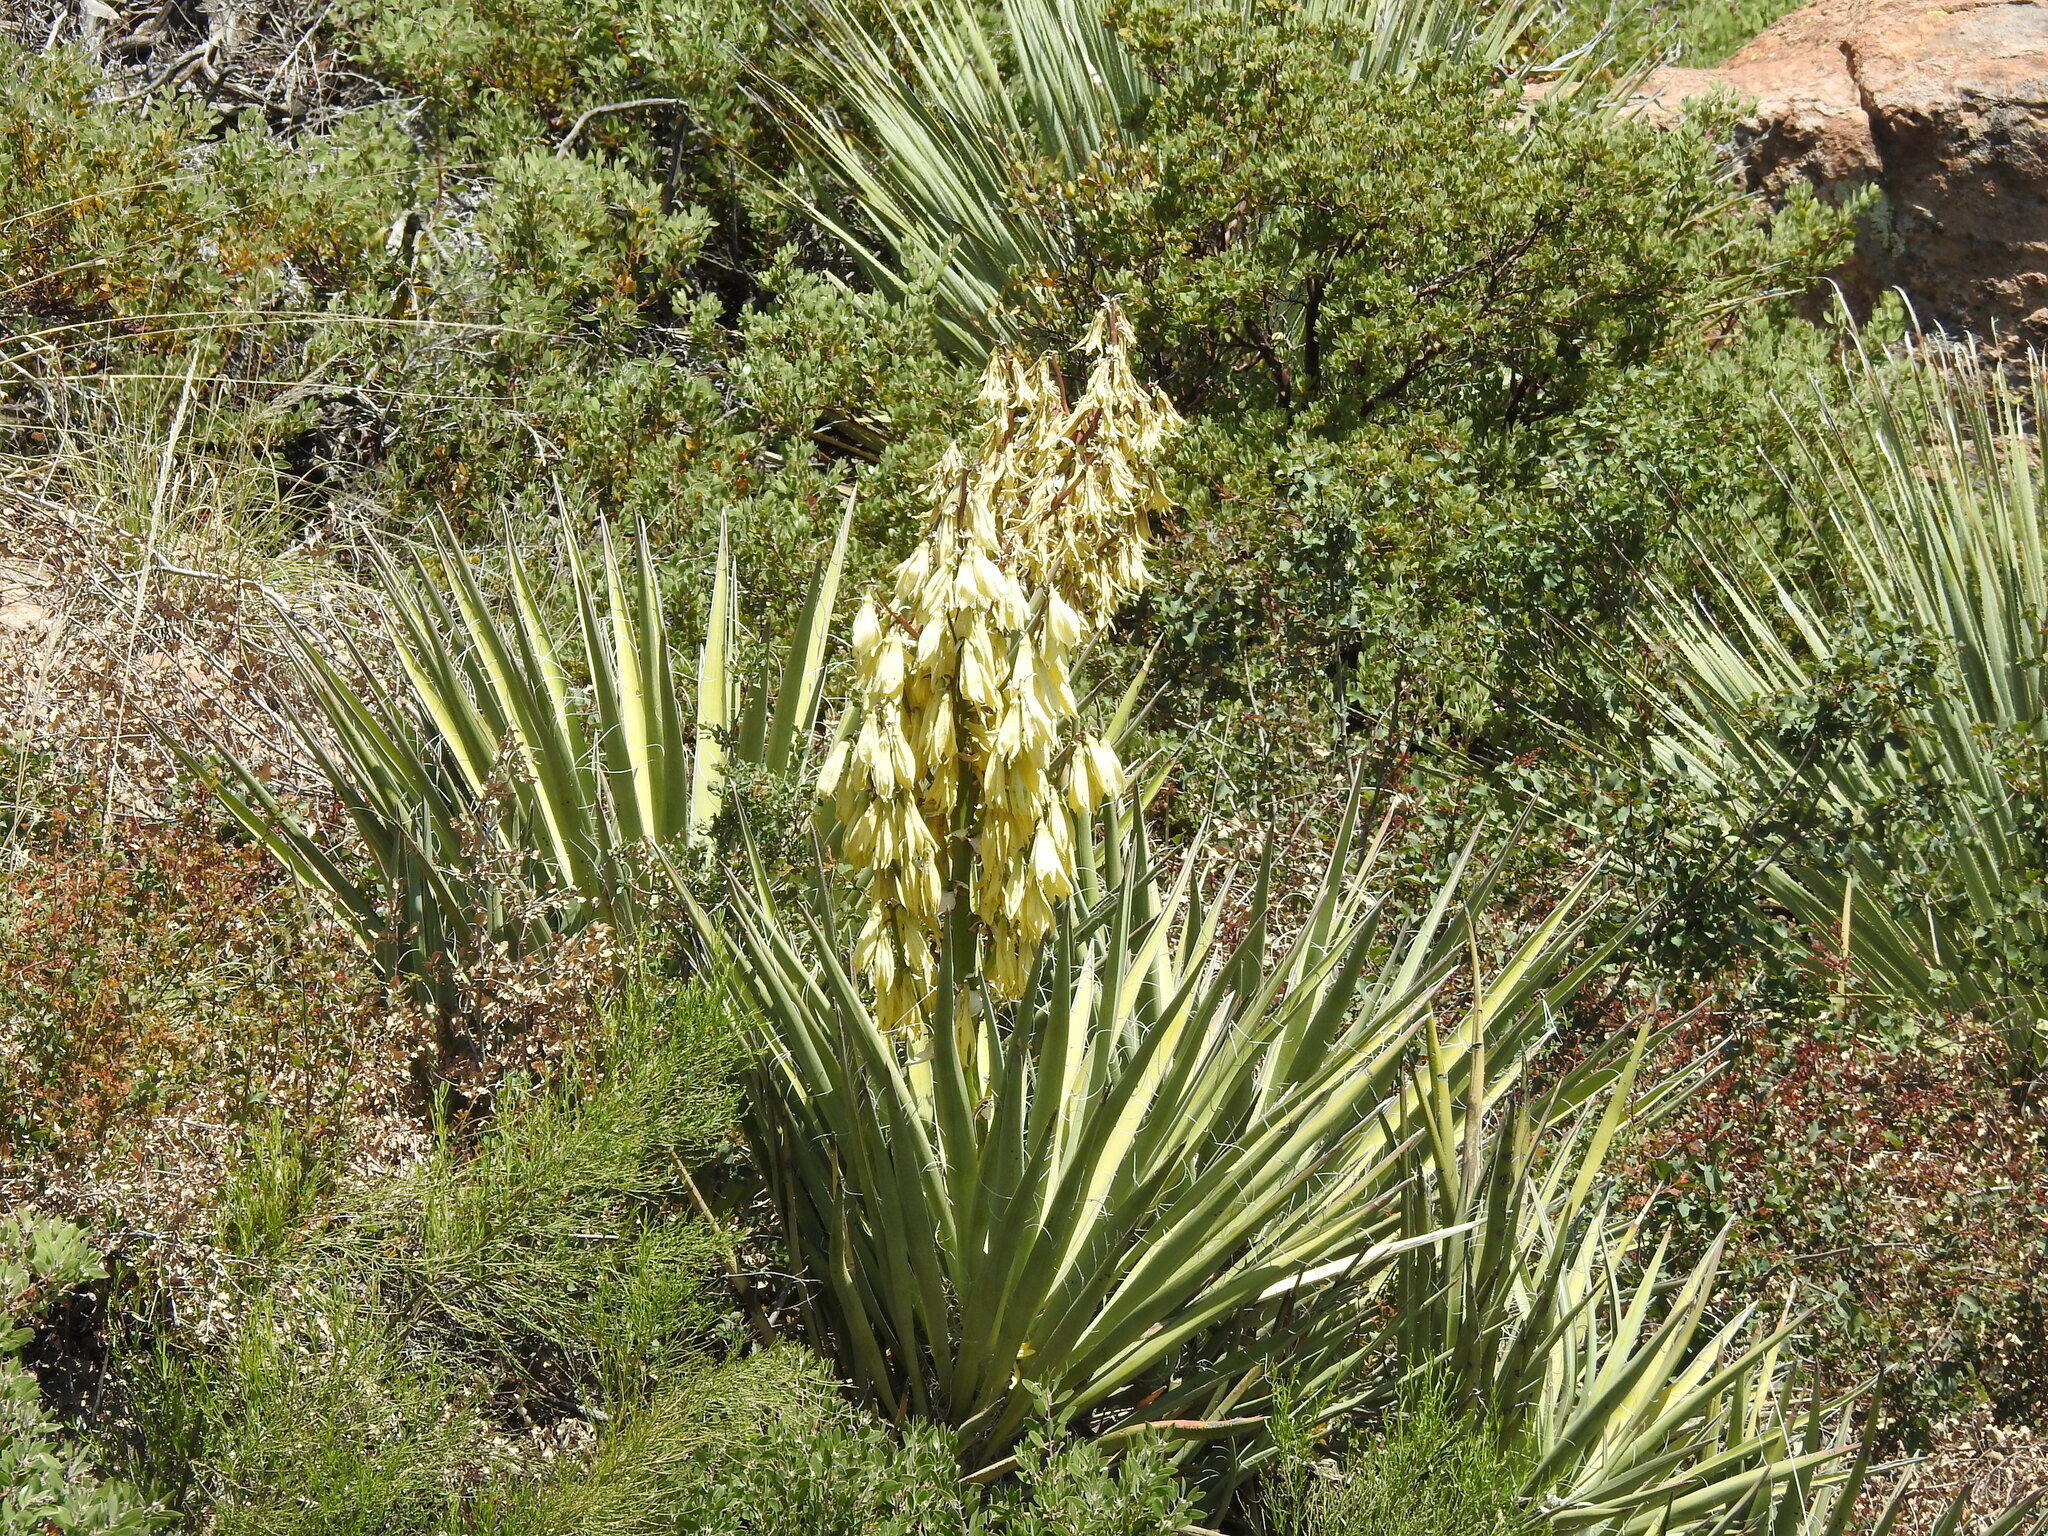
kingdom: Plantae
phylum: Tracheophyta
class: Liliopsida
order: Asparagales
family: Asparagaceae
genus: Yucca
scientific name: Yucca baccata
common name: Banana yucca
